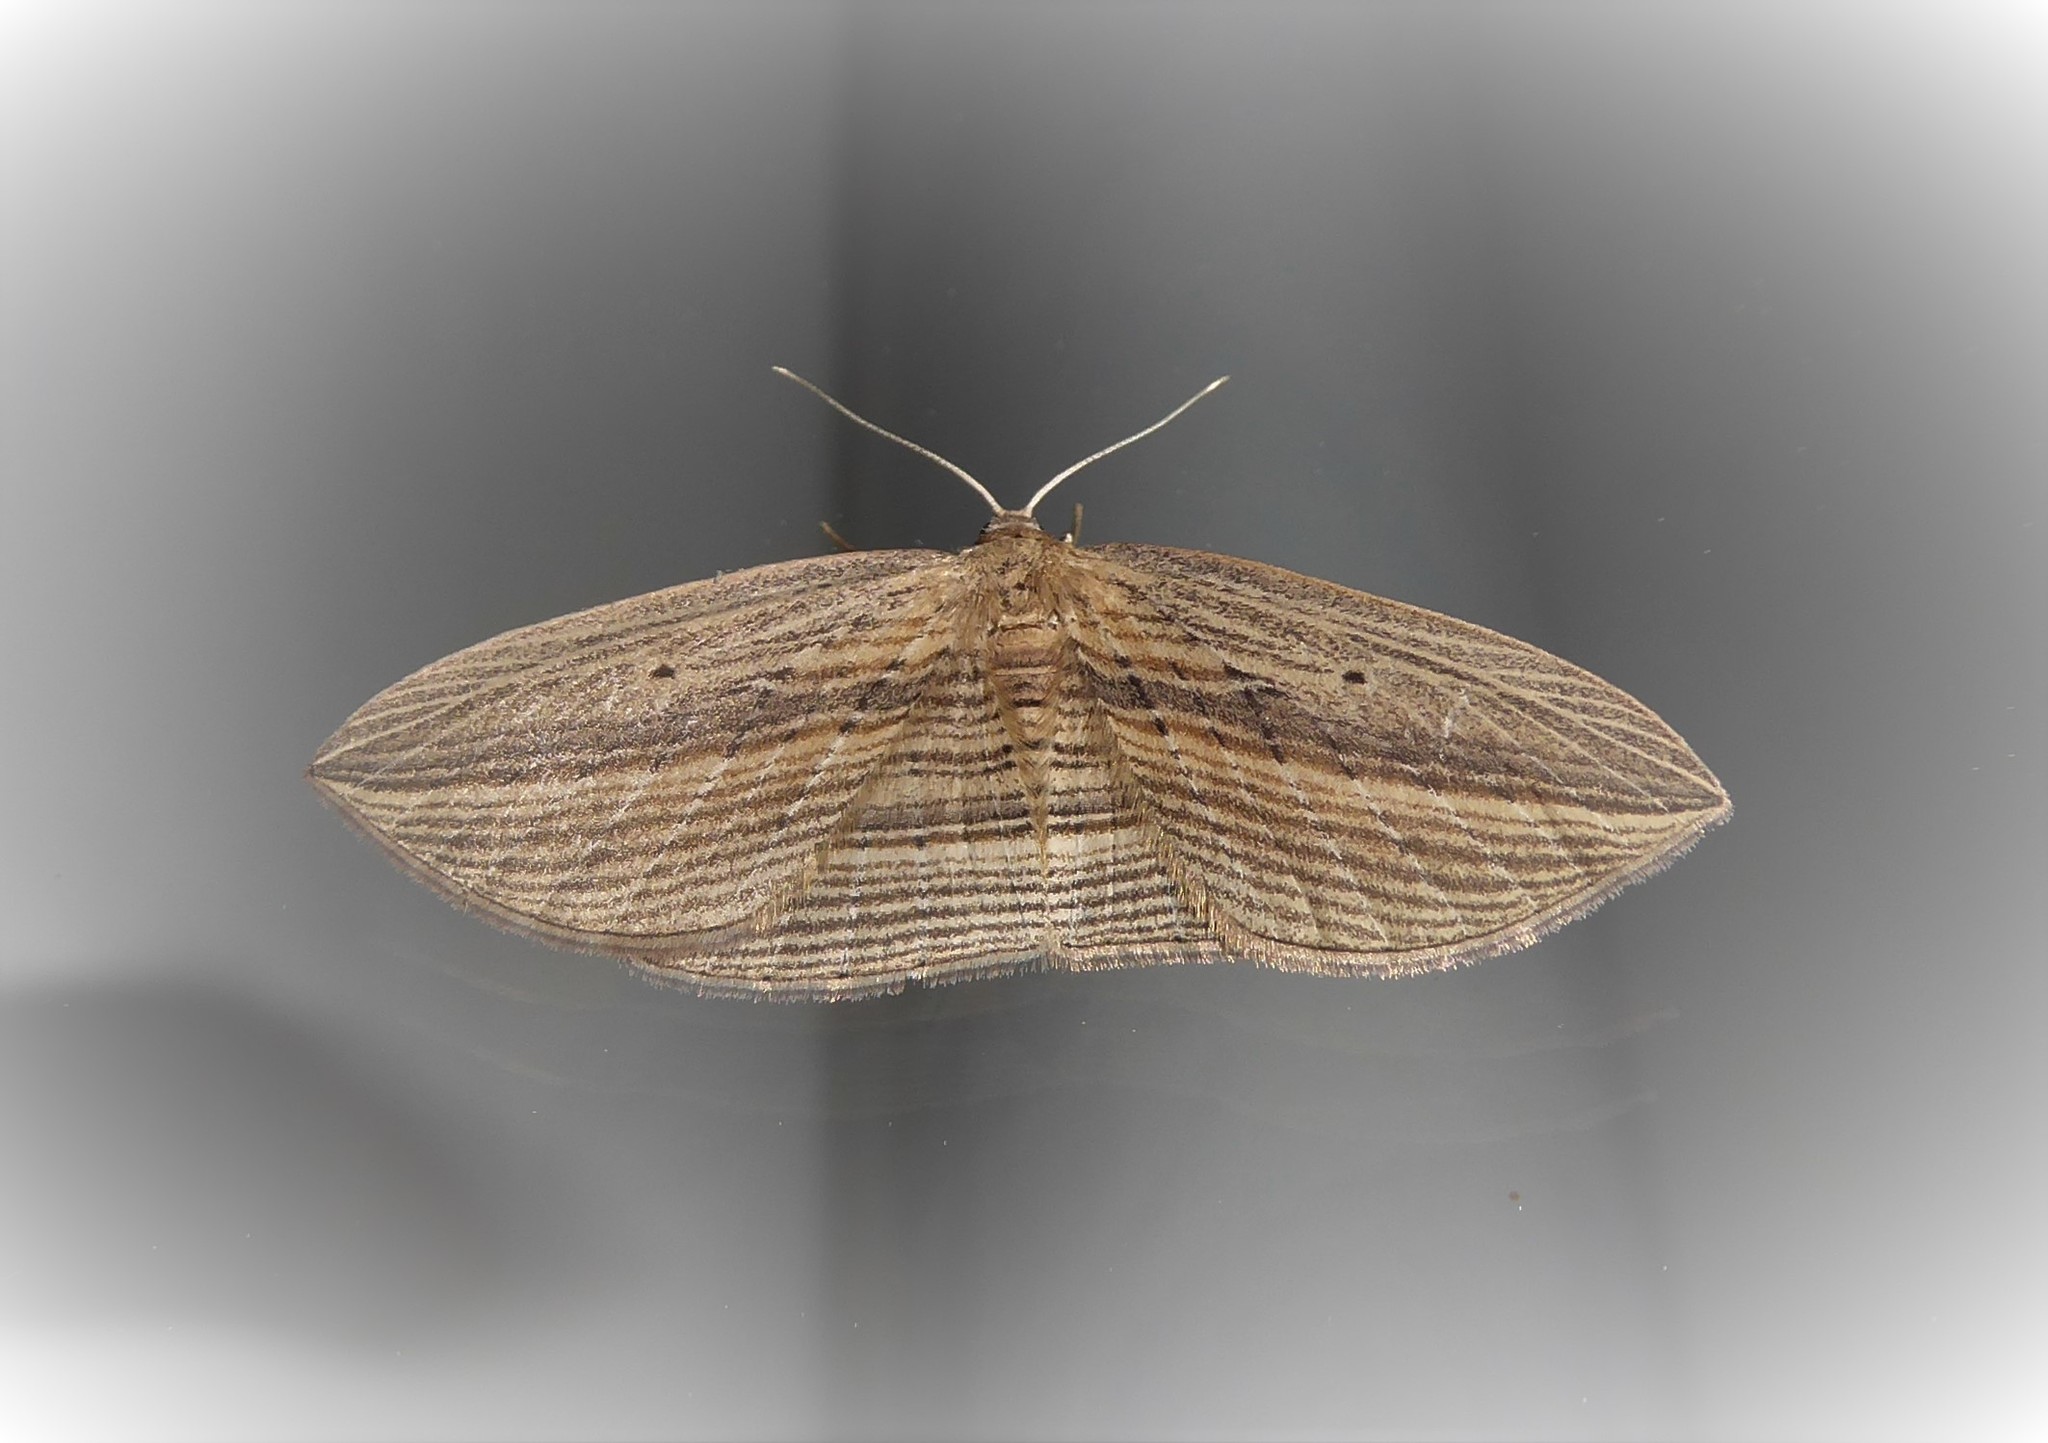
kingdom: Animalia
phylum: Arthropoda
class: Insecta
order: Lepidoptera
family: Geometridae
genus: Epiphryne
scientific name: Epiphryne verriculata
